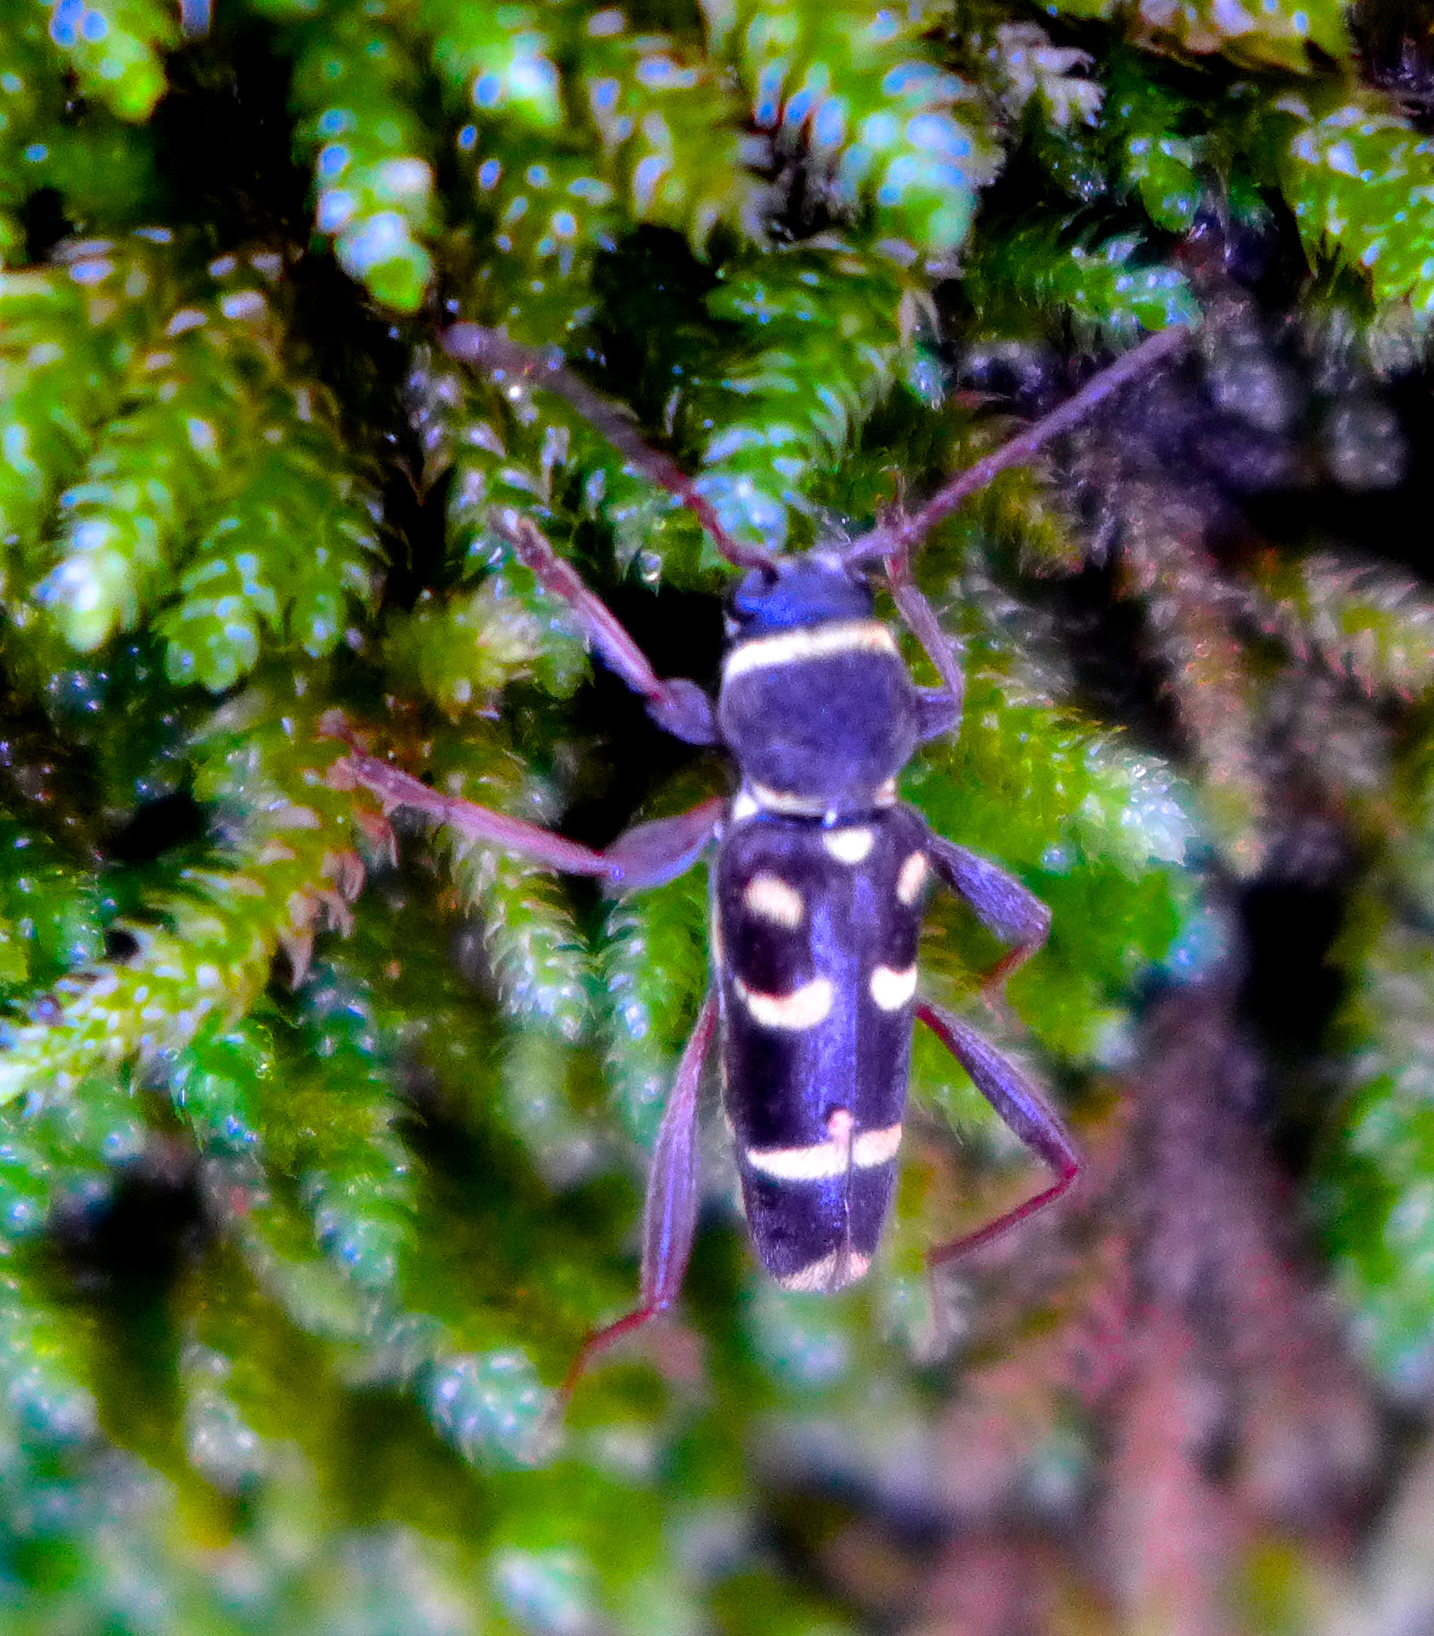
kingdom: Animalia
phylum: Arthropoda
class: Insecta
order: Coleoptera
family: Cerambycidae
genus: Clytus
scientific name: Clytus blaisdelli
